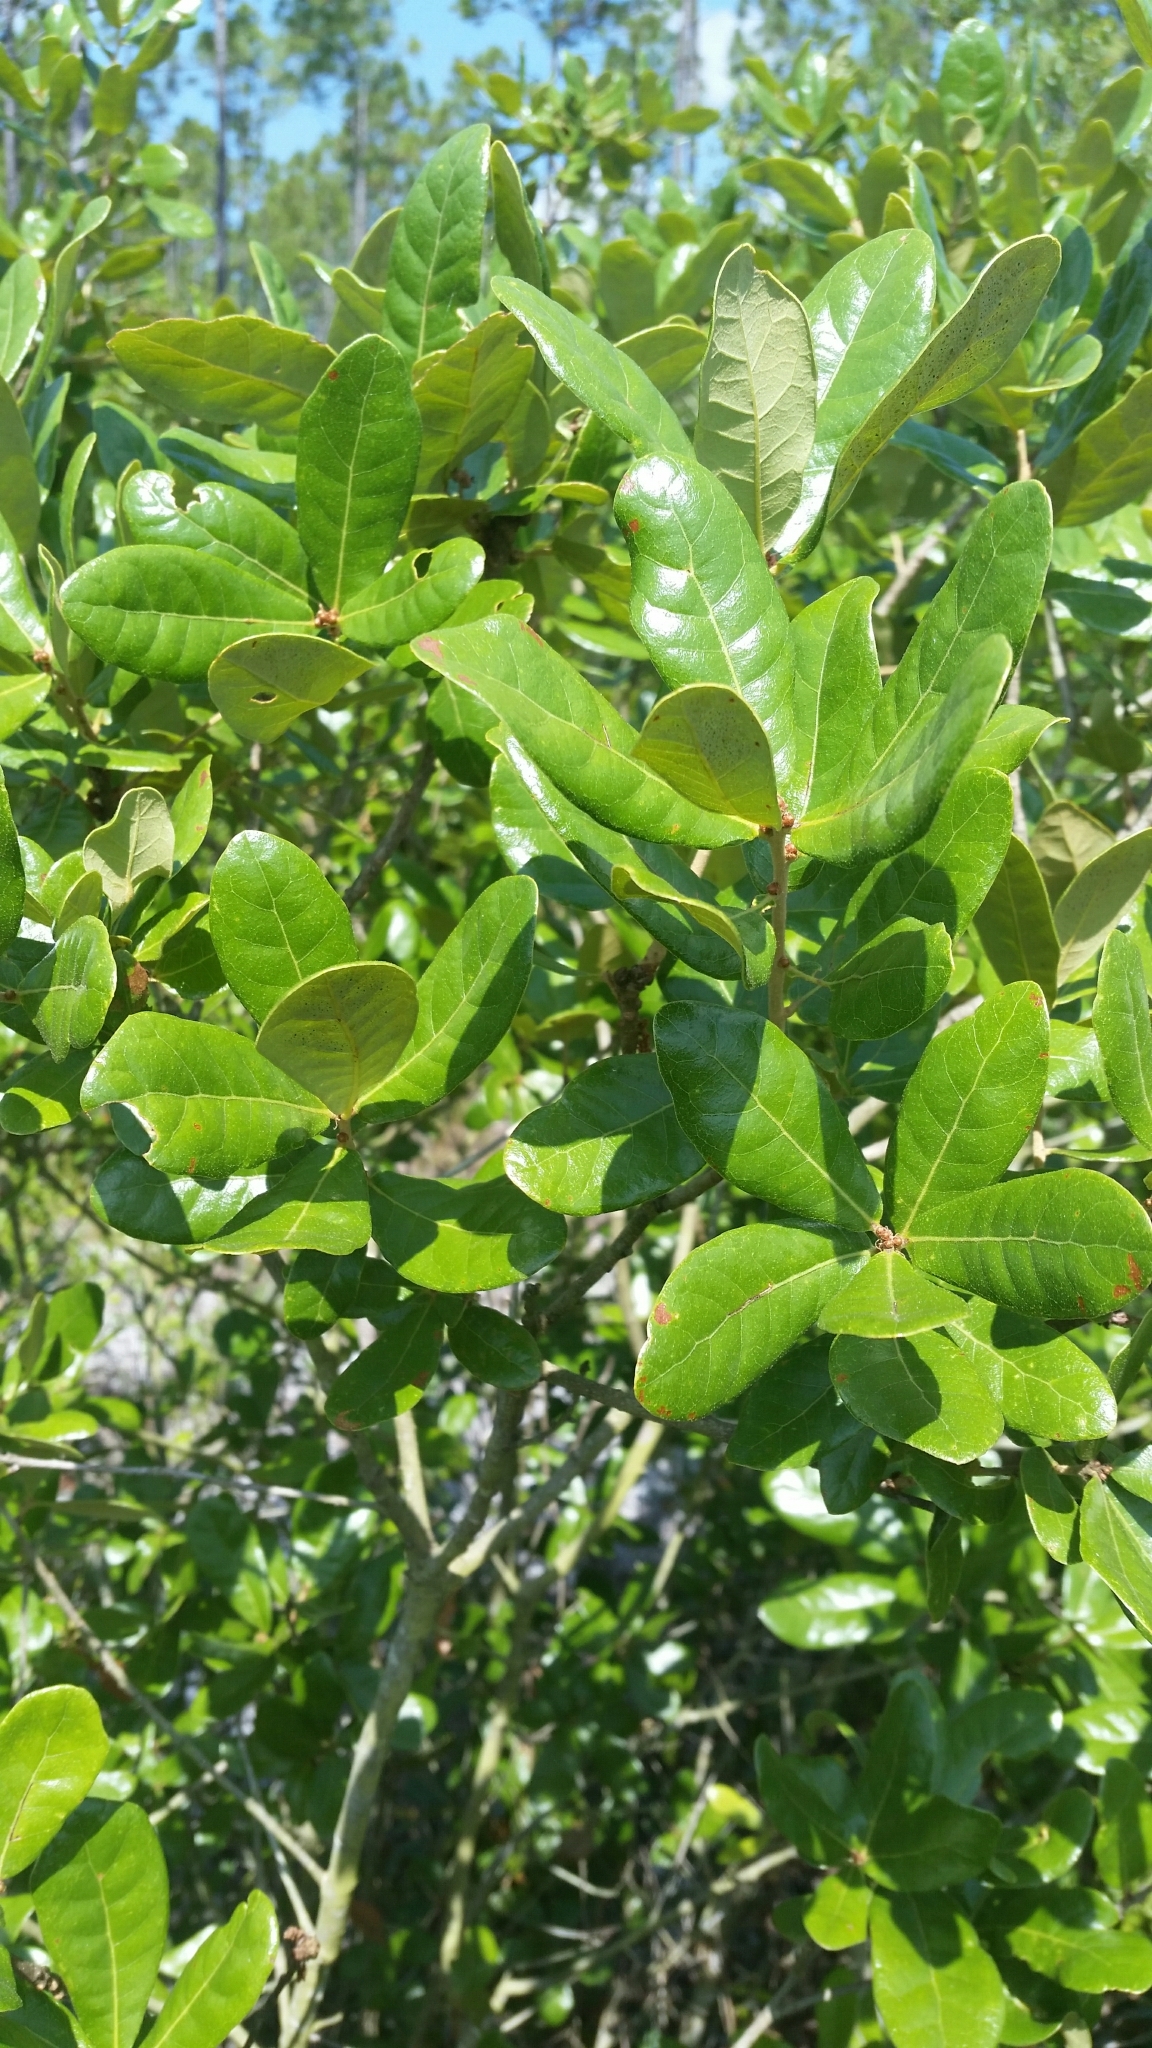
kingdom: Plantae
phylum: Tracheophyta
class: Magnoliopsida
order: Fagales
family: Fagaceae
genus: Quercus
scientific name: Quercus chapmanii
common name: Chapman oak
